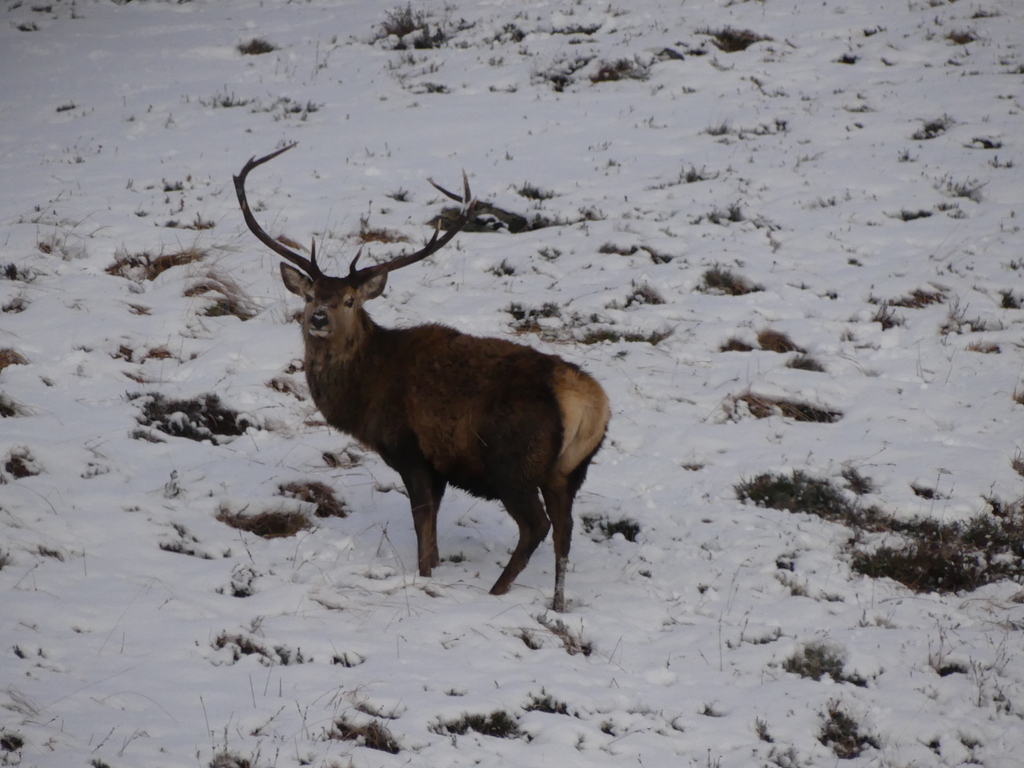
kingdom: Animalia
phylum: Chordata
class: Mammalia
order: Artiodactyla
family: Cervidae
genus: Cervus
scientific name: Cervus elaphus
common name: Red deer
